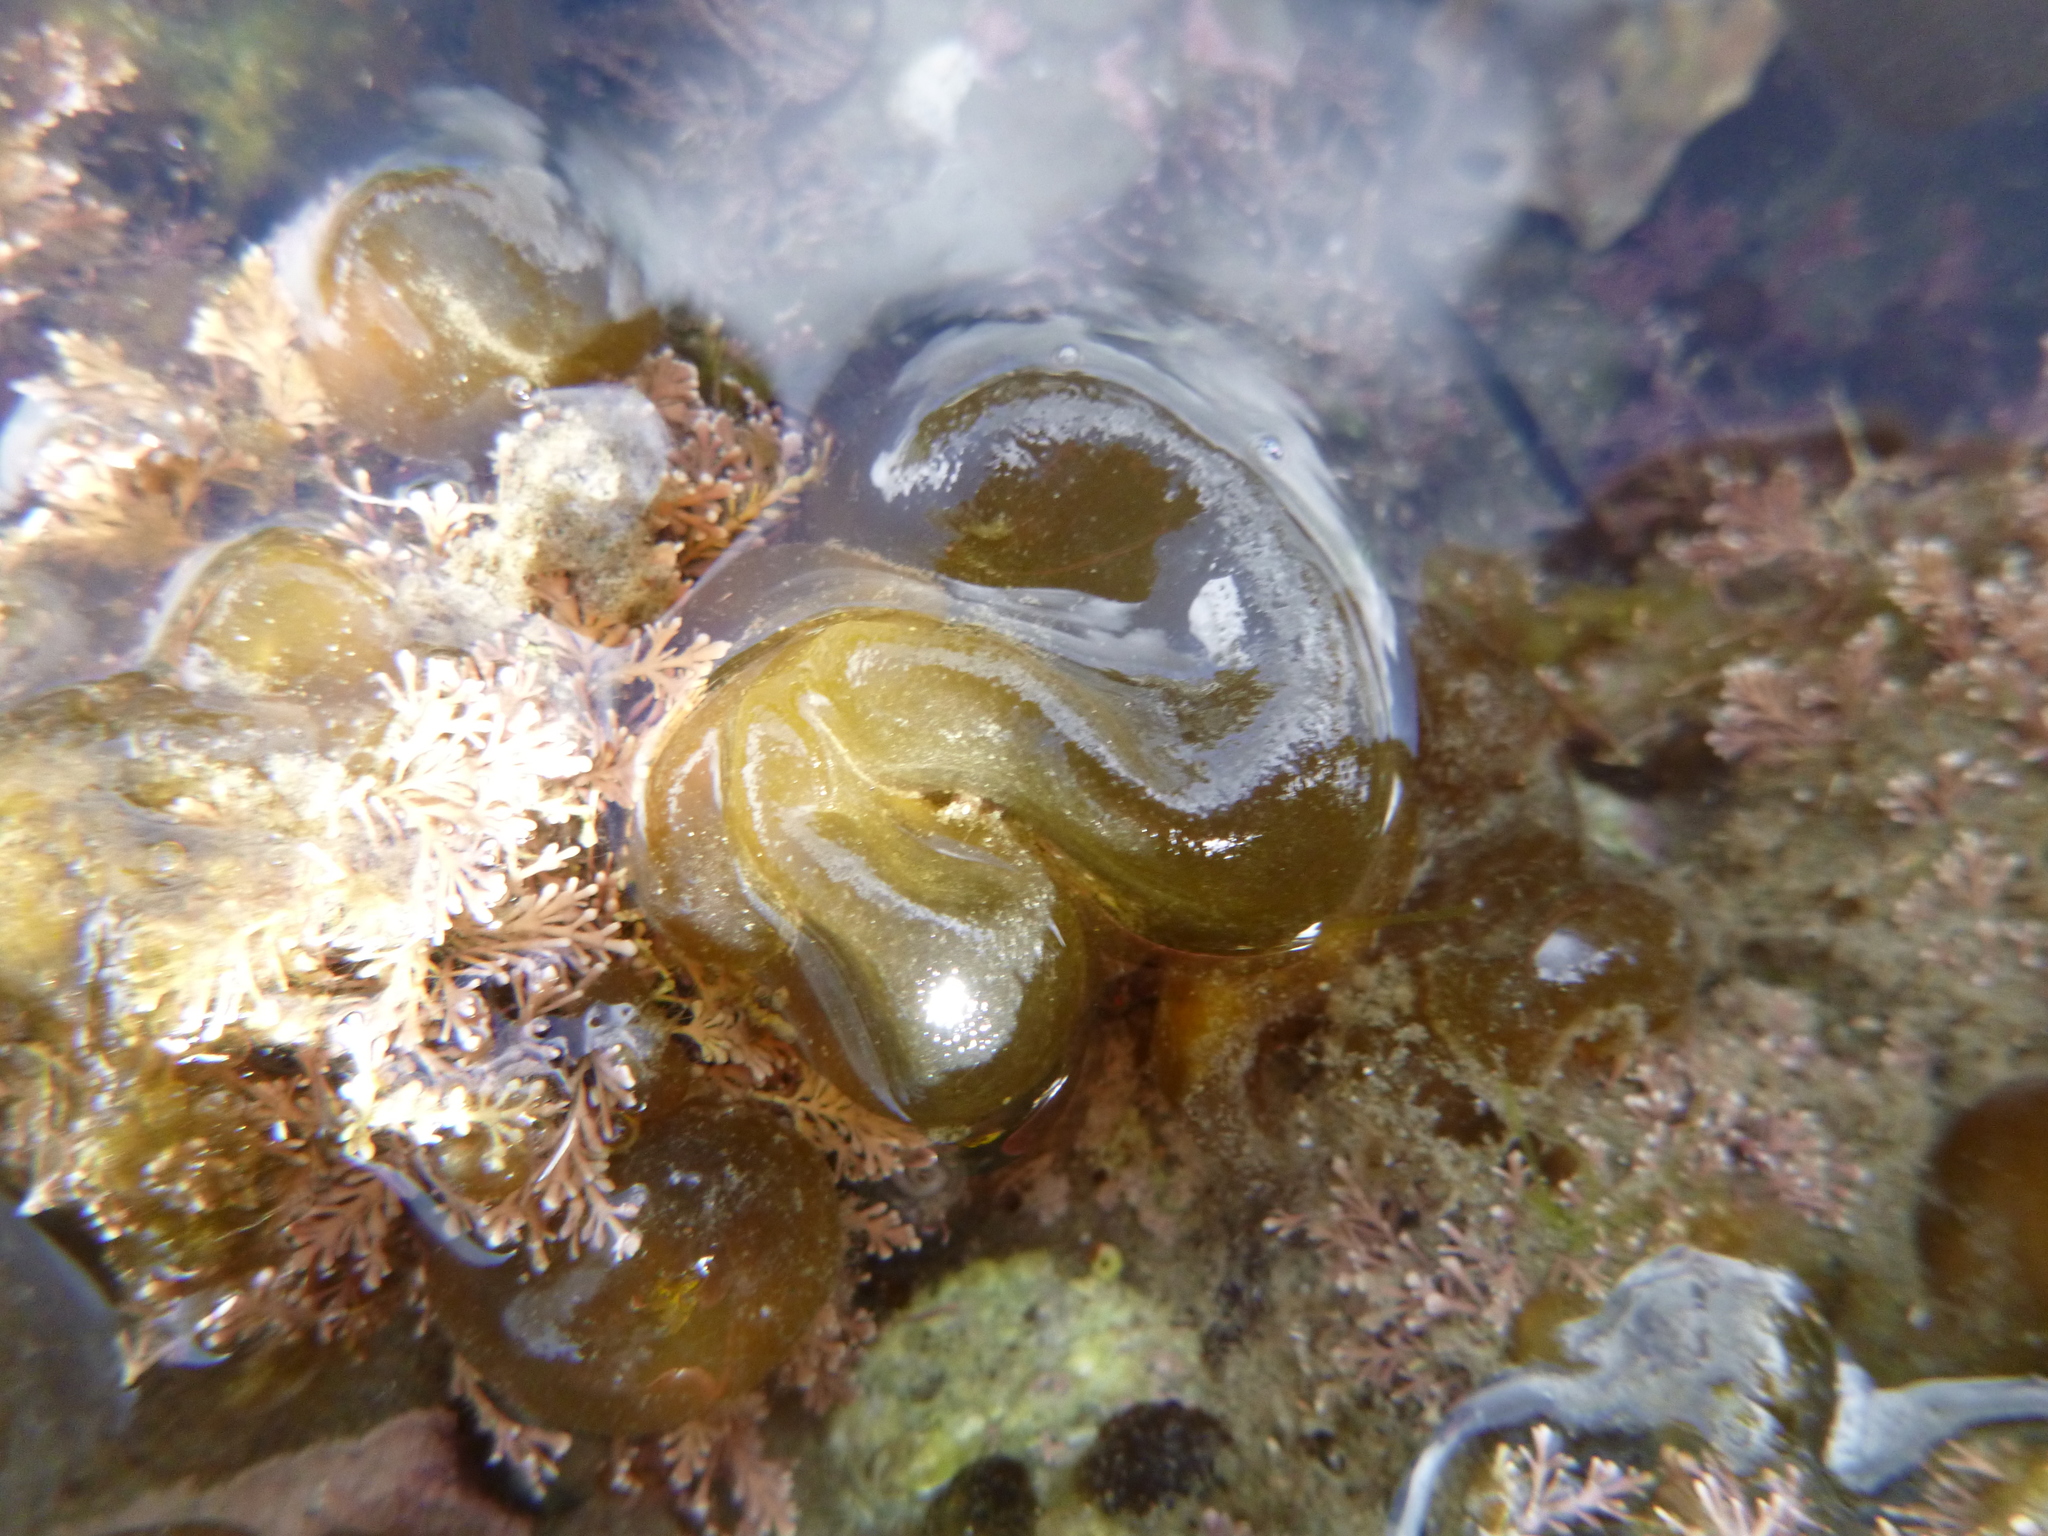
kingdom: Chromista
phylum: Ochrophyta
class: Phaeophyceae
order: Scytosiphonales
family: Scytosiphonaceae
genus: Colpomenia
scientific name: Colpomenia peregrina
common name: Oyster thief
